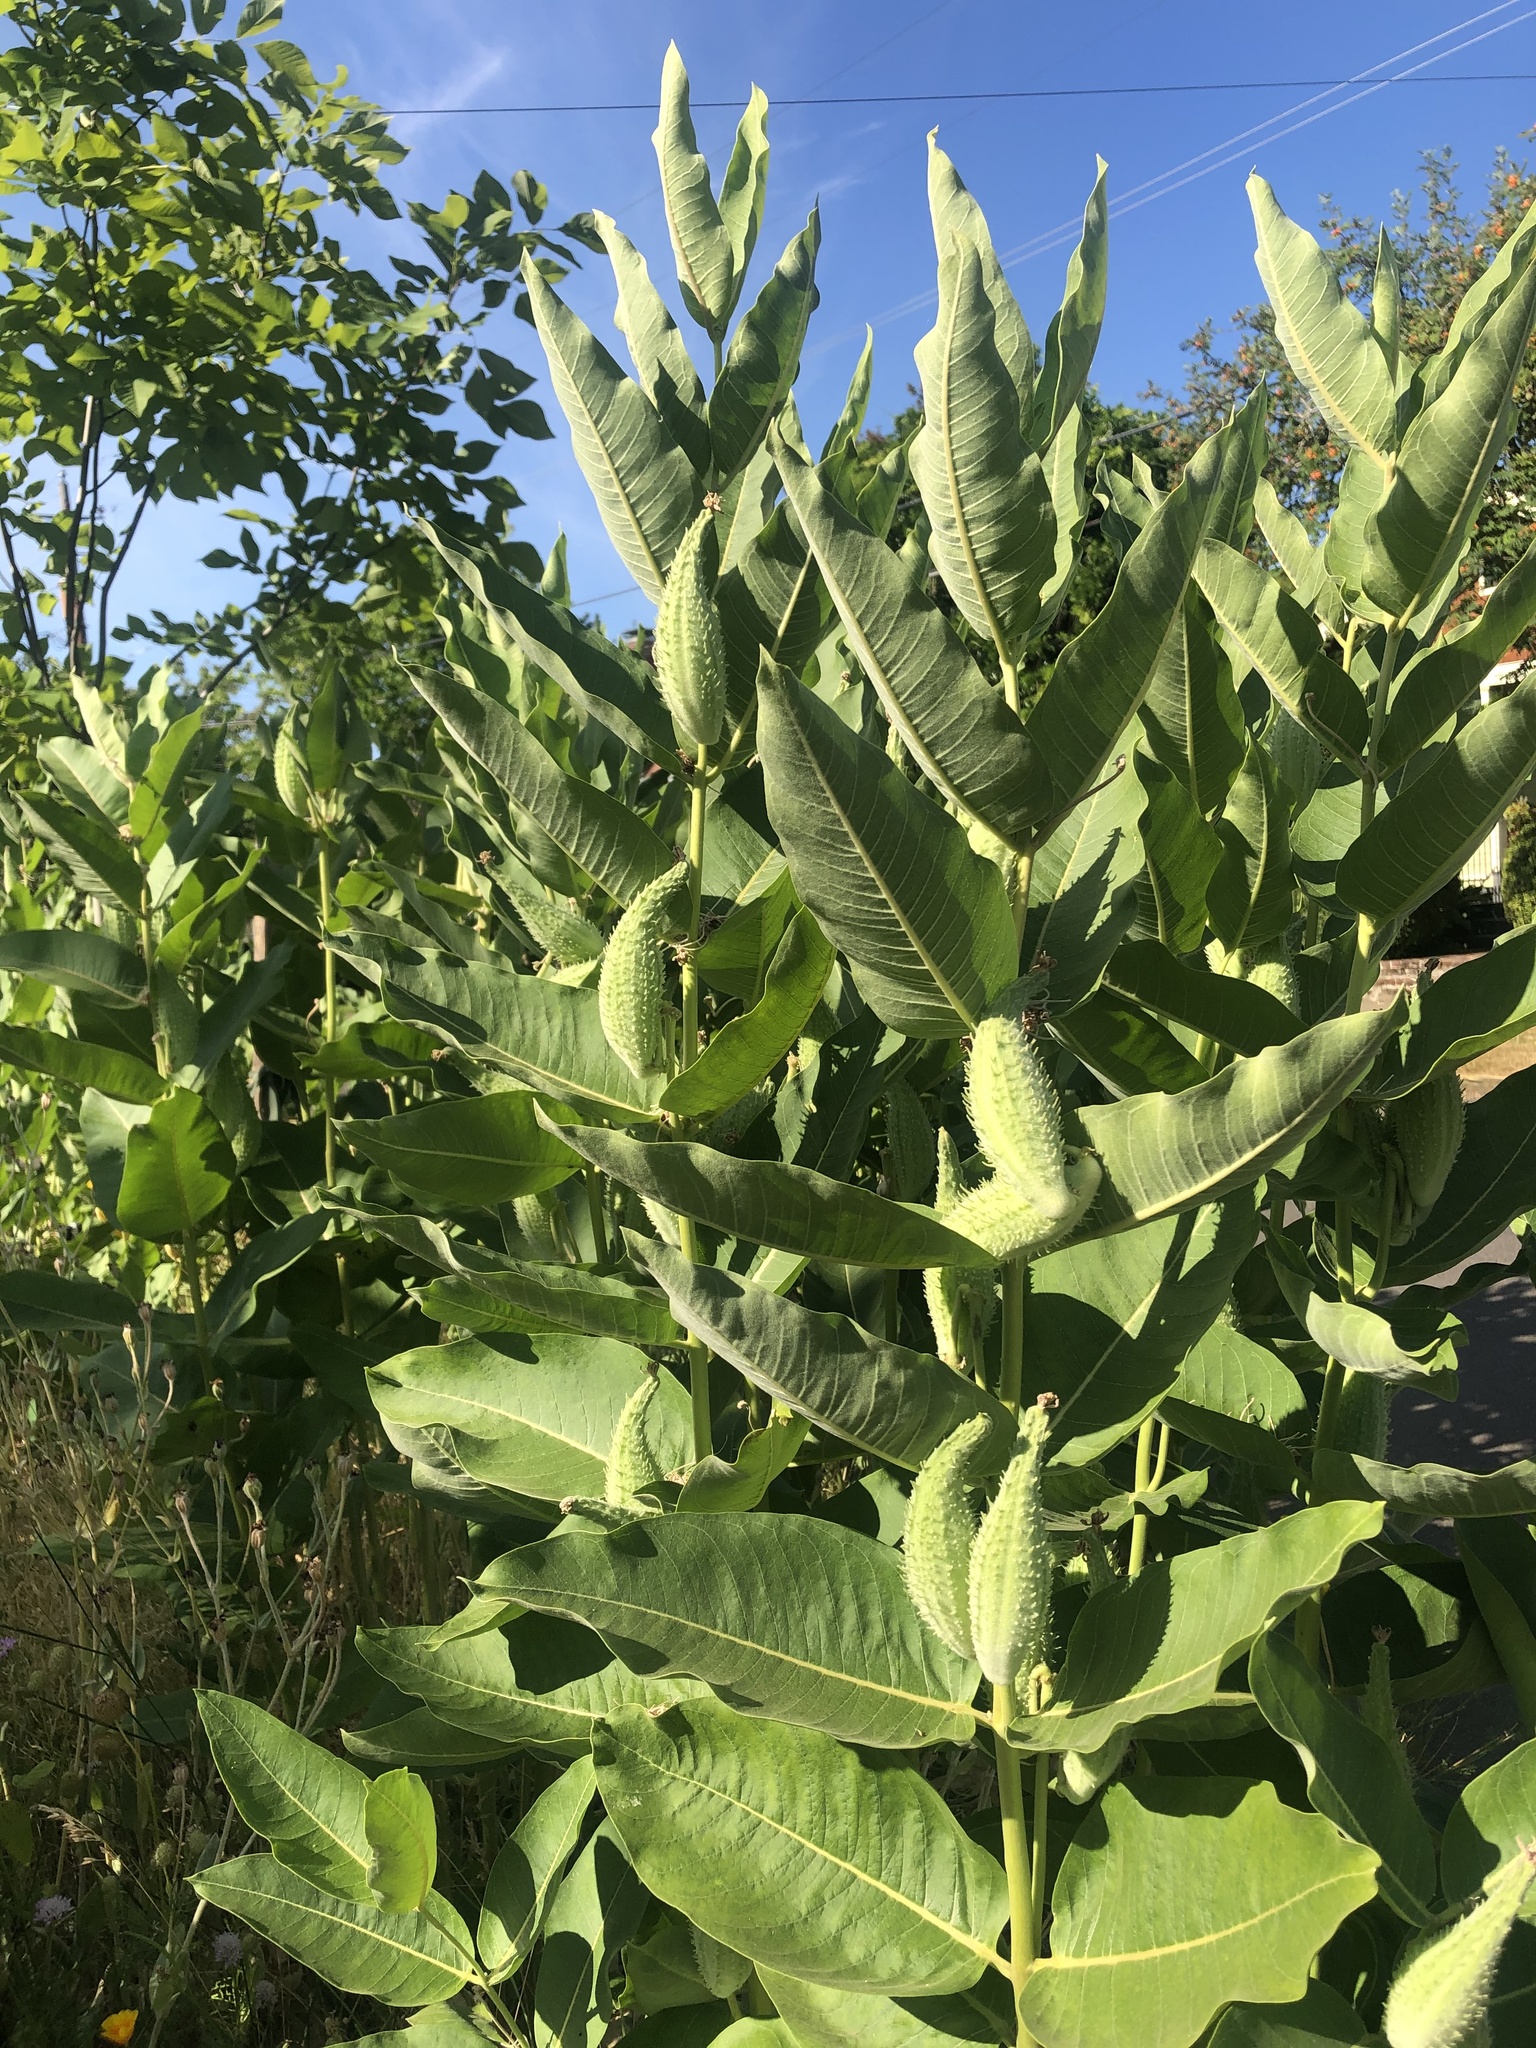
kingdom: Plantae
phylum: Tracheophyta
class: Magnoliopsida
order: Gentianales
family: Apocynaceae
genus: Asclepias
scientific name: Asclepias speciosa
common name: Showy milkweed
